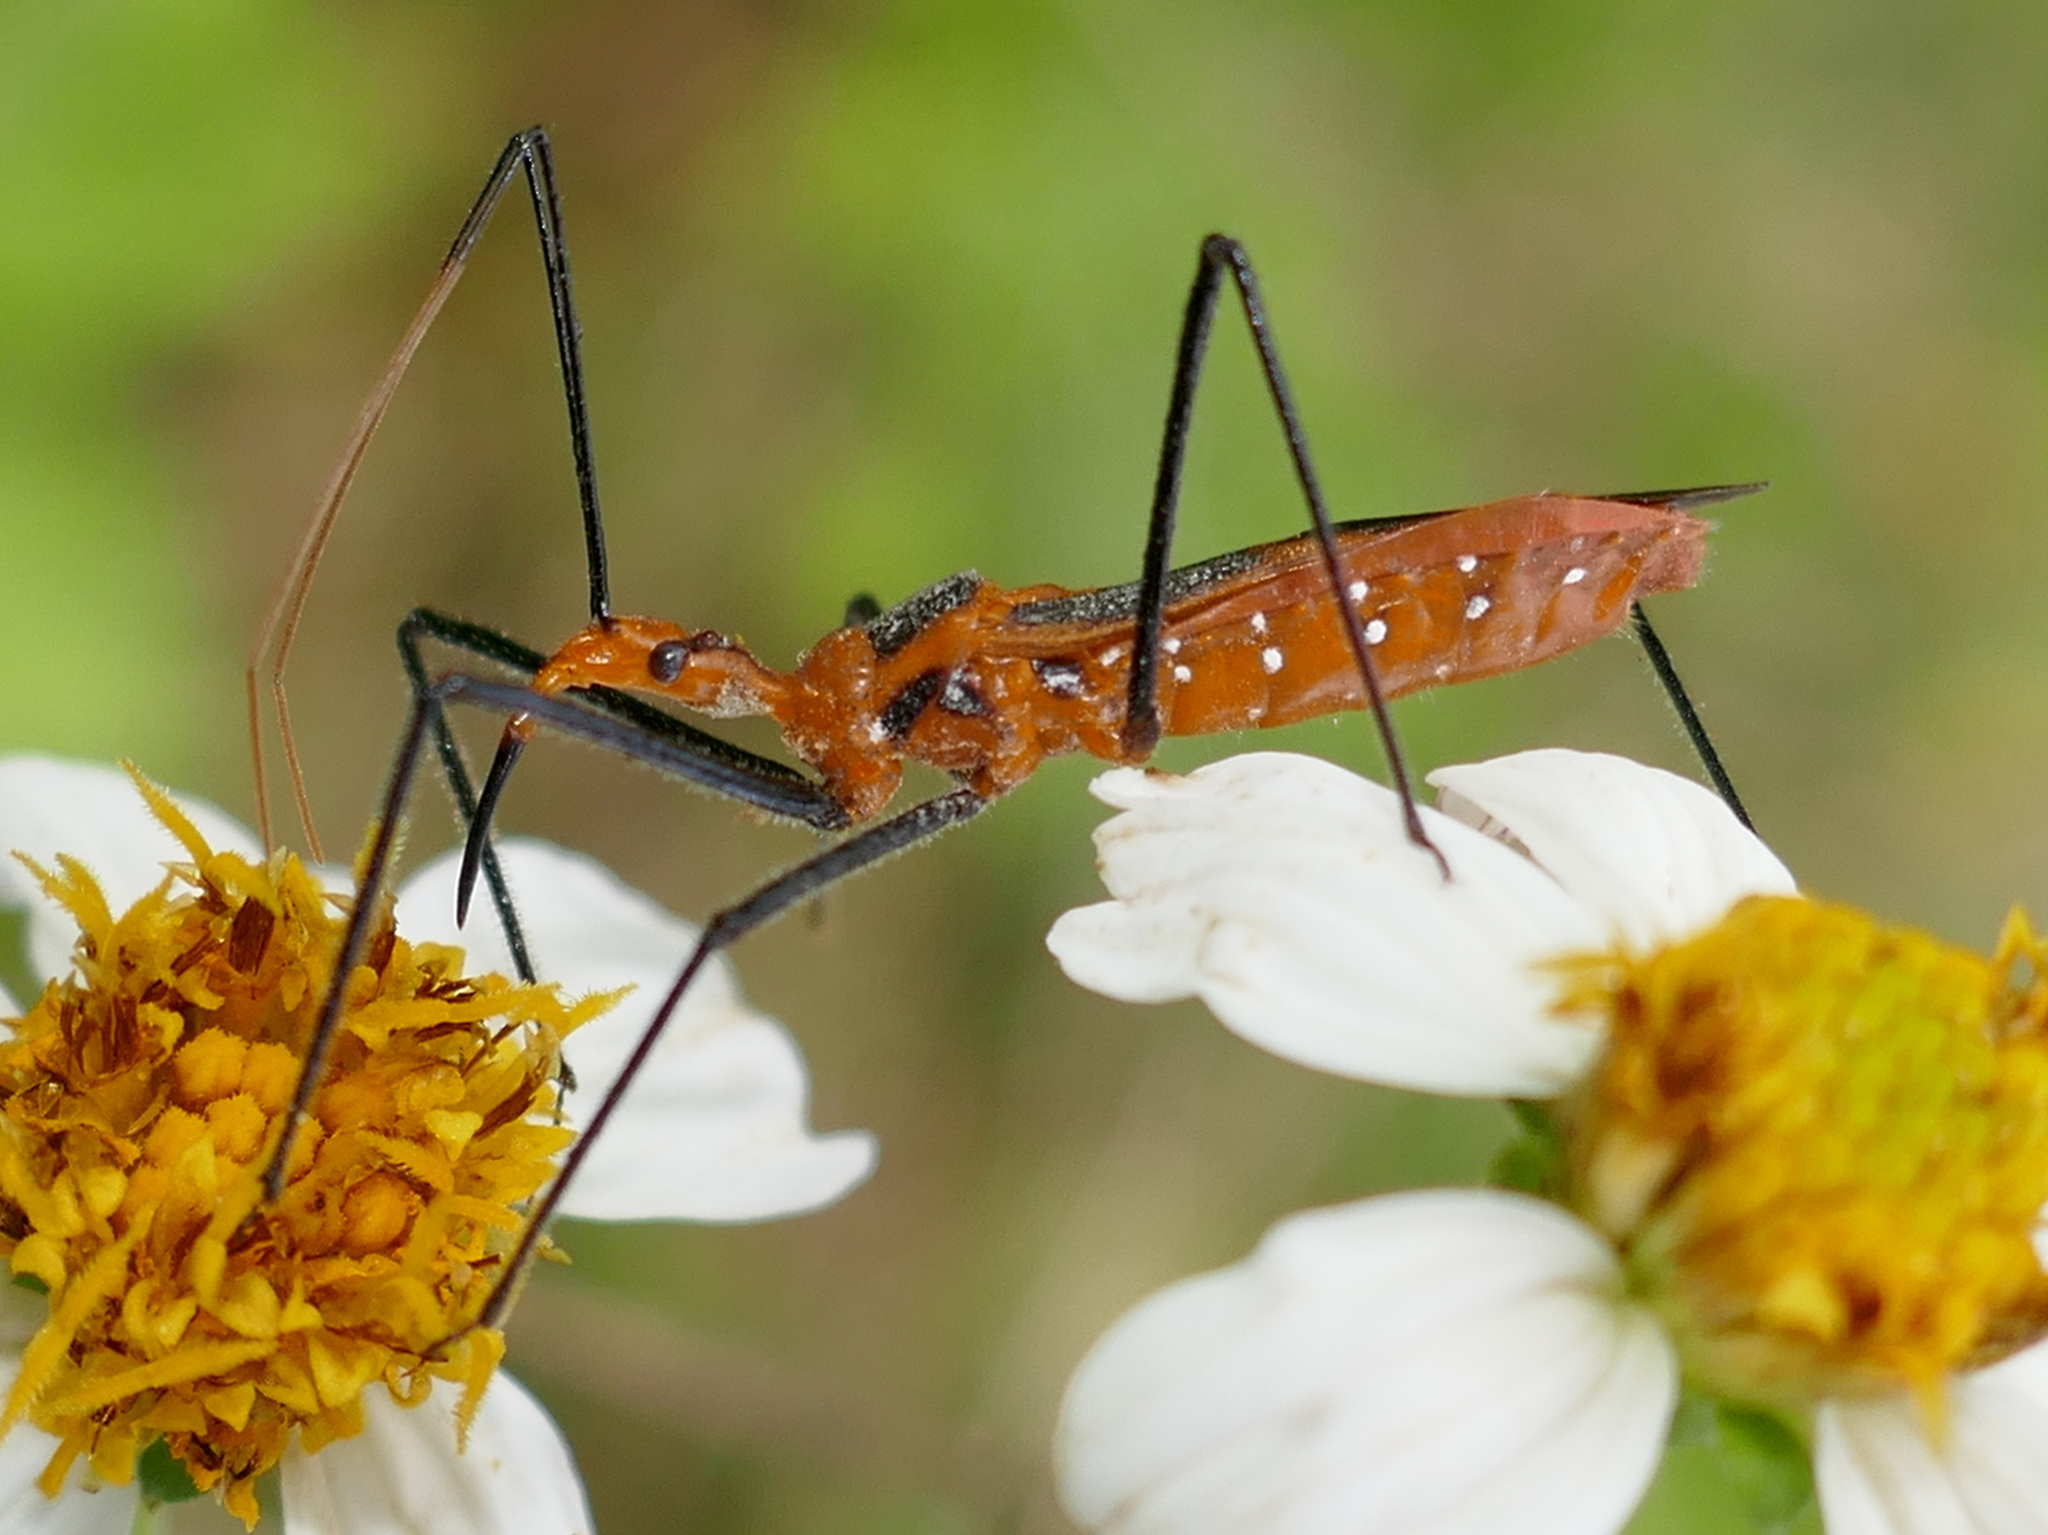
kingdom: Animalia
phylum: Arthropoda
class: Insecta
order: Hemiptera
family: Reduviidae
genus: Zelus
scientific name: Zelus longipes
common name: Milkweed assassin bug
